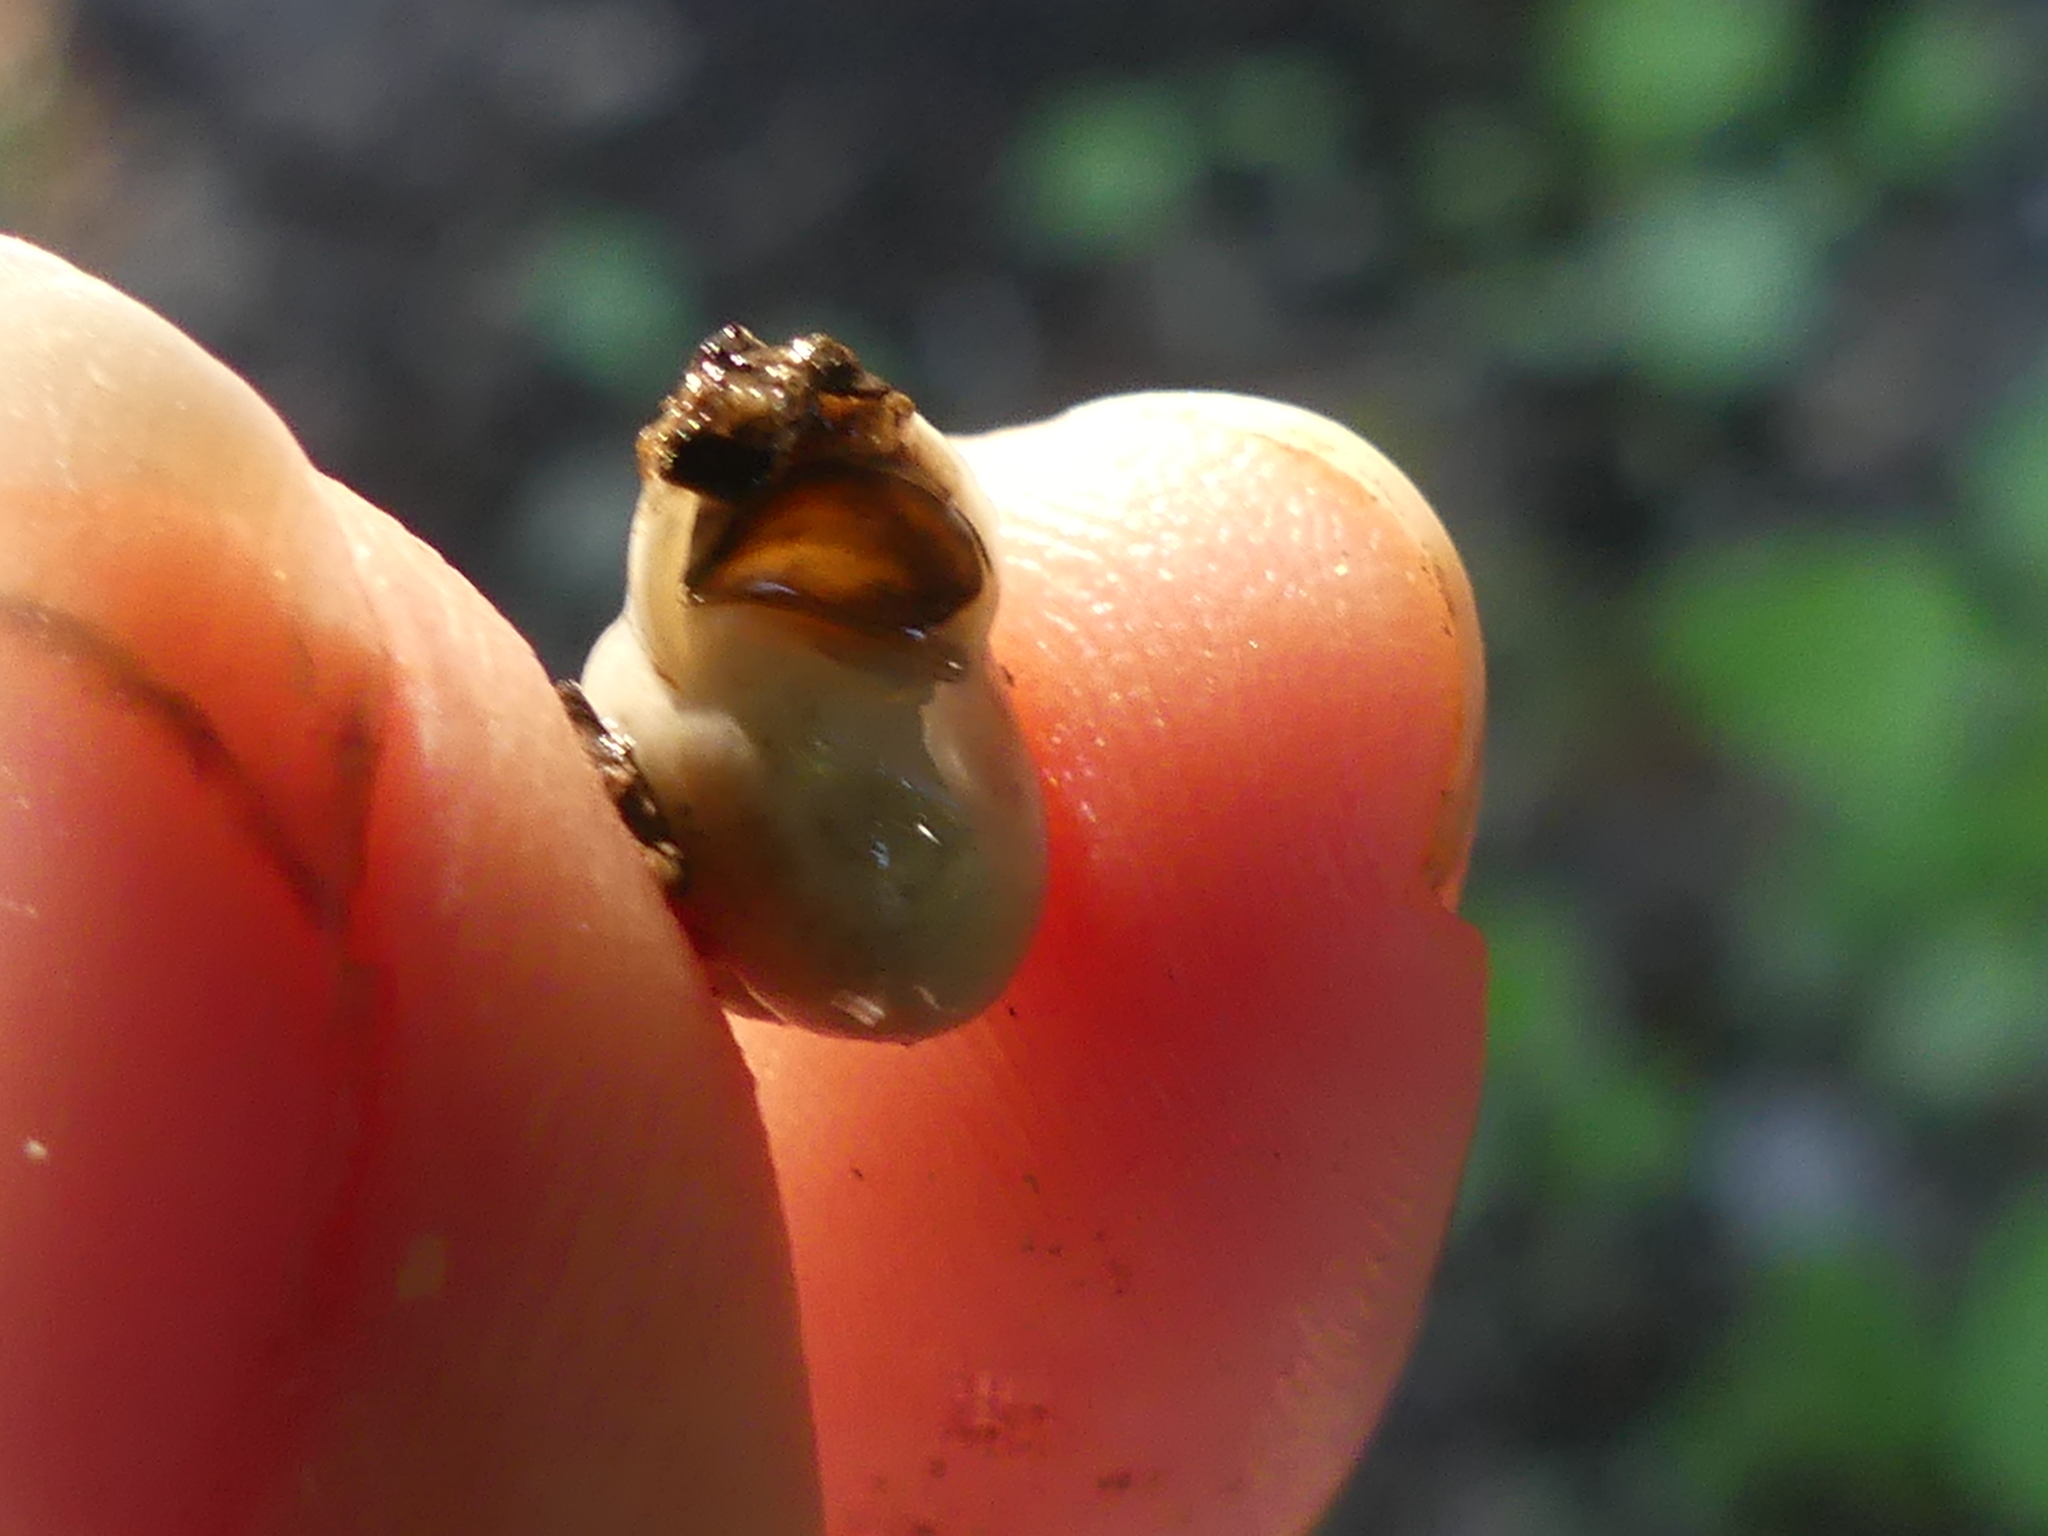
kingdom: Animalia
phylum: Mollusca
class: Gastropoda
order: Cycloneritida
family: Helicinidae
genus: Helicina
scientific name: Helicina orbiculata
